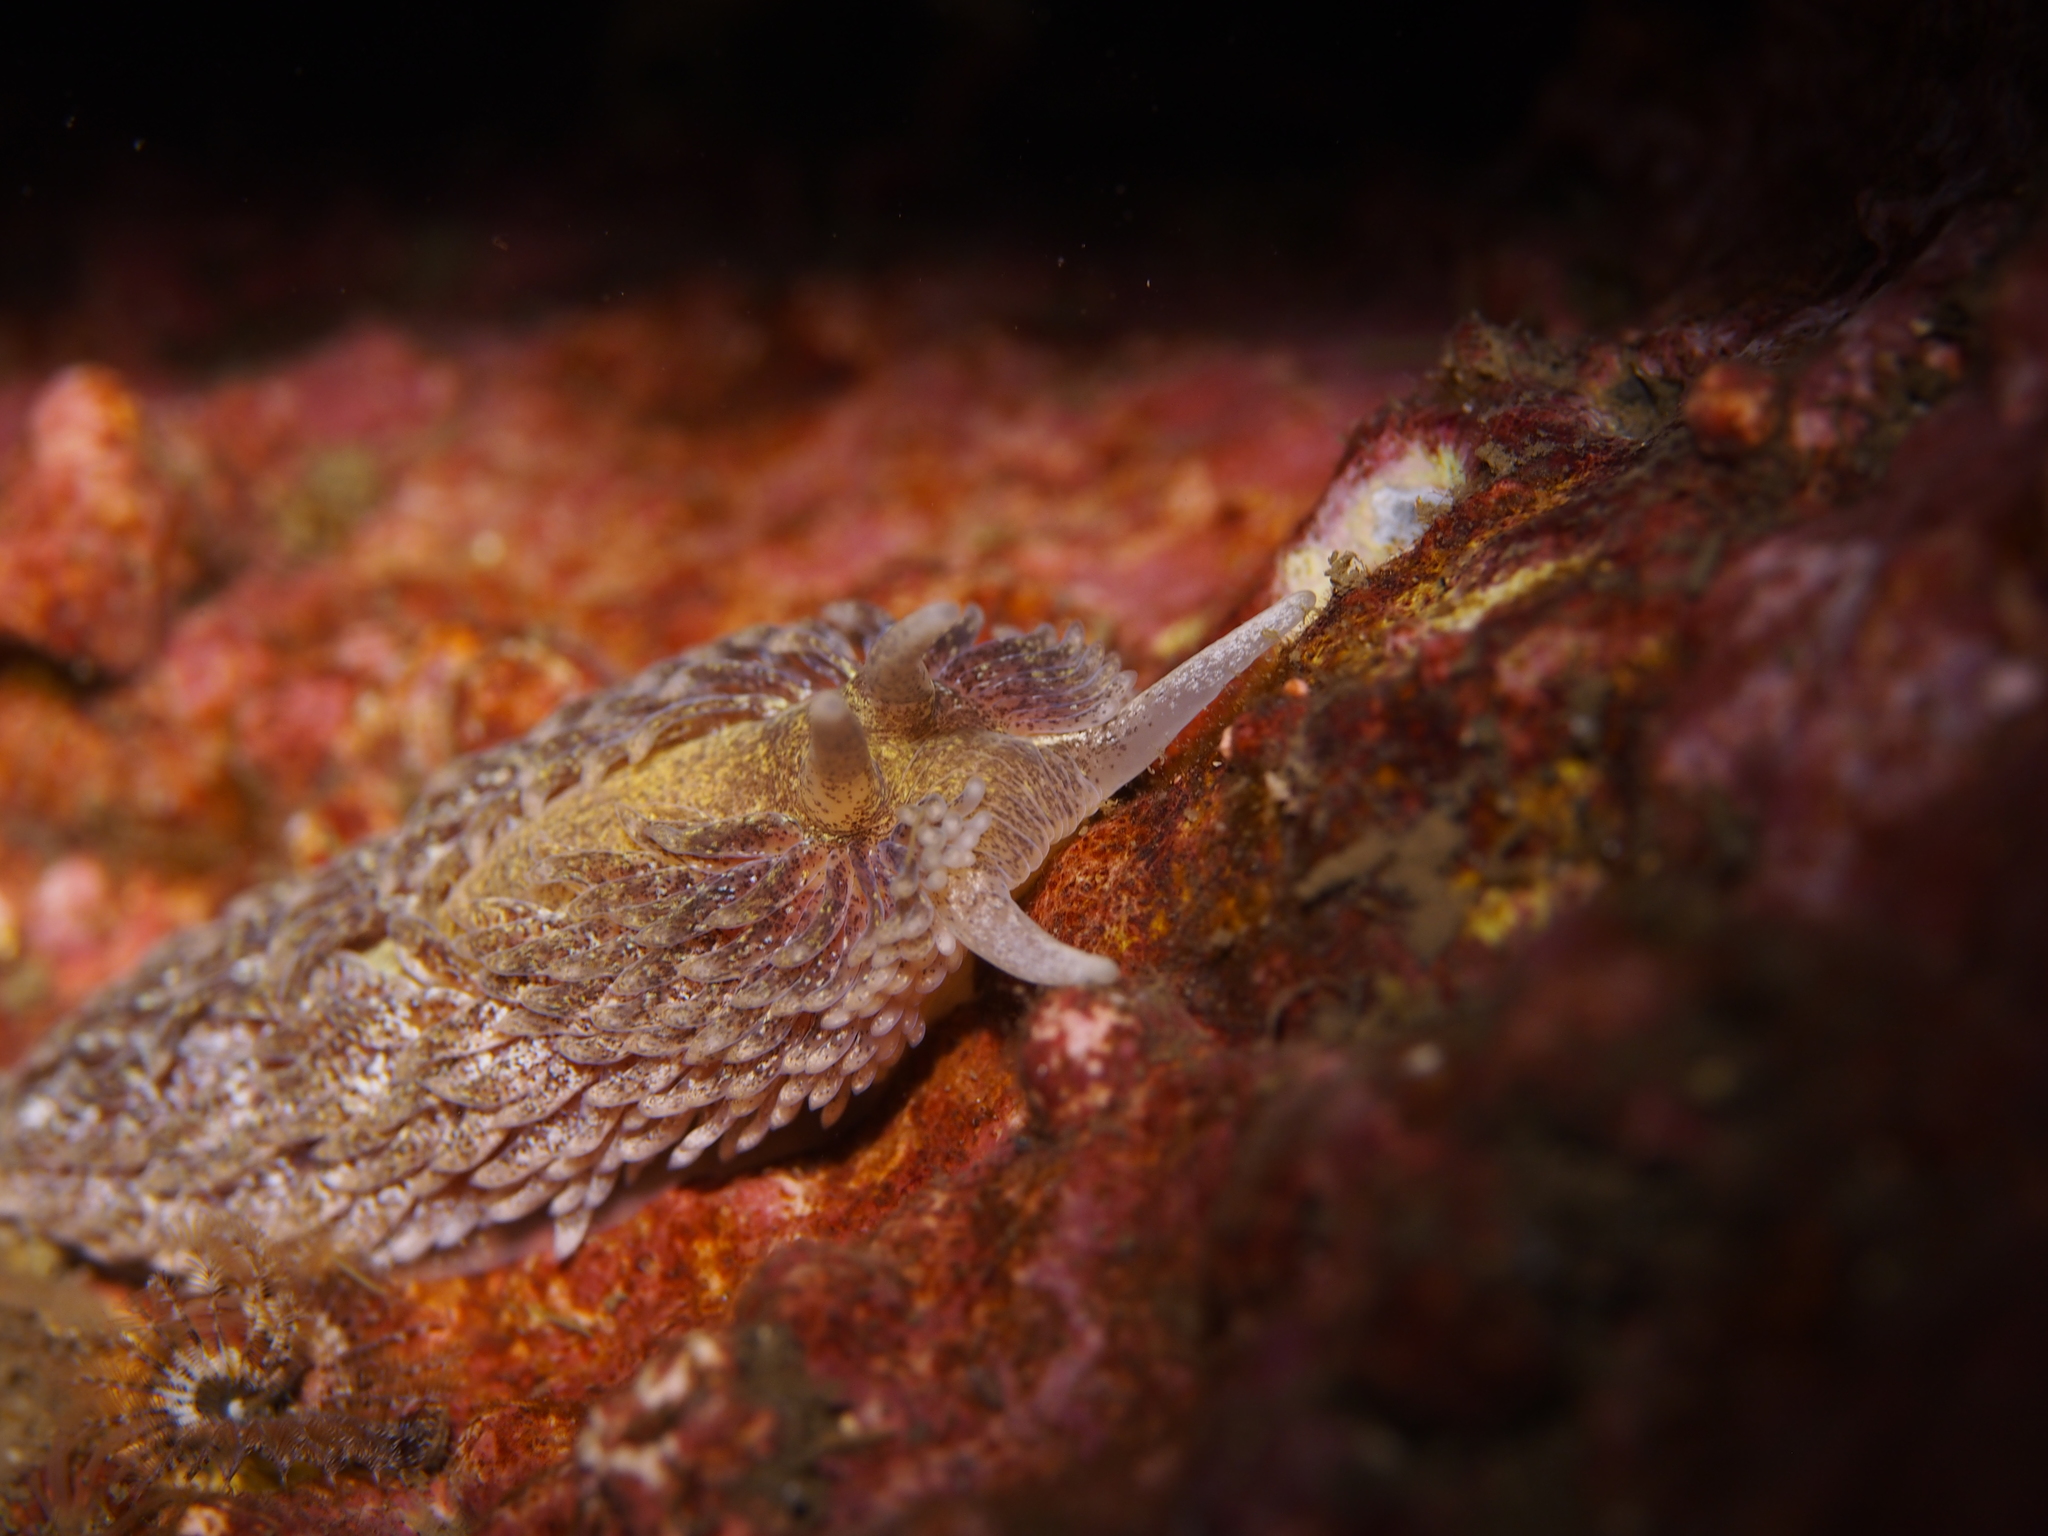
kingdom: Animalia
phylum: Mollusca
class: Gastropoda
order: Nudibranchia
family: Aeolidiidae
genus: Aeolidia
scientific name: Aeolidia papillosa
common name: Common grey sea slug
